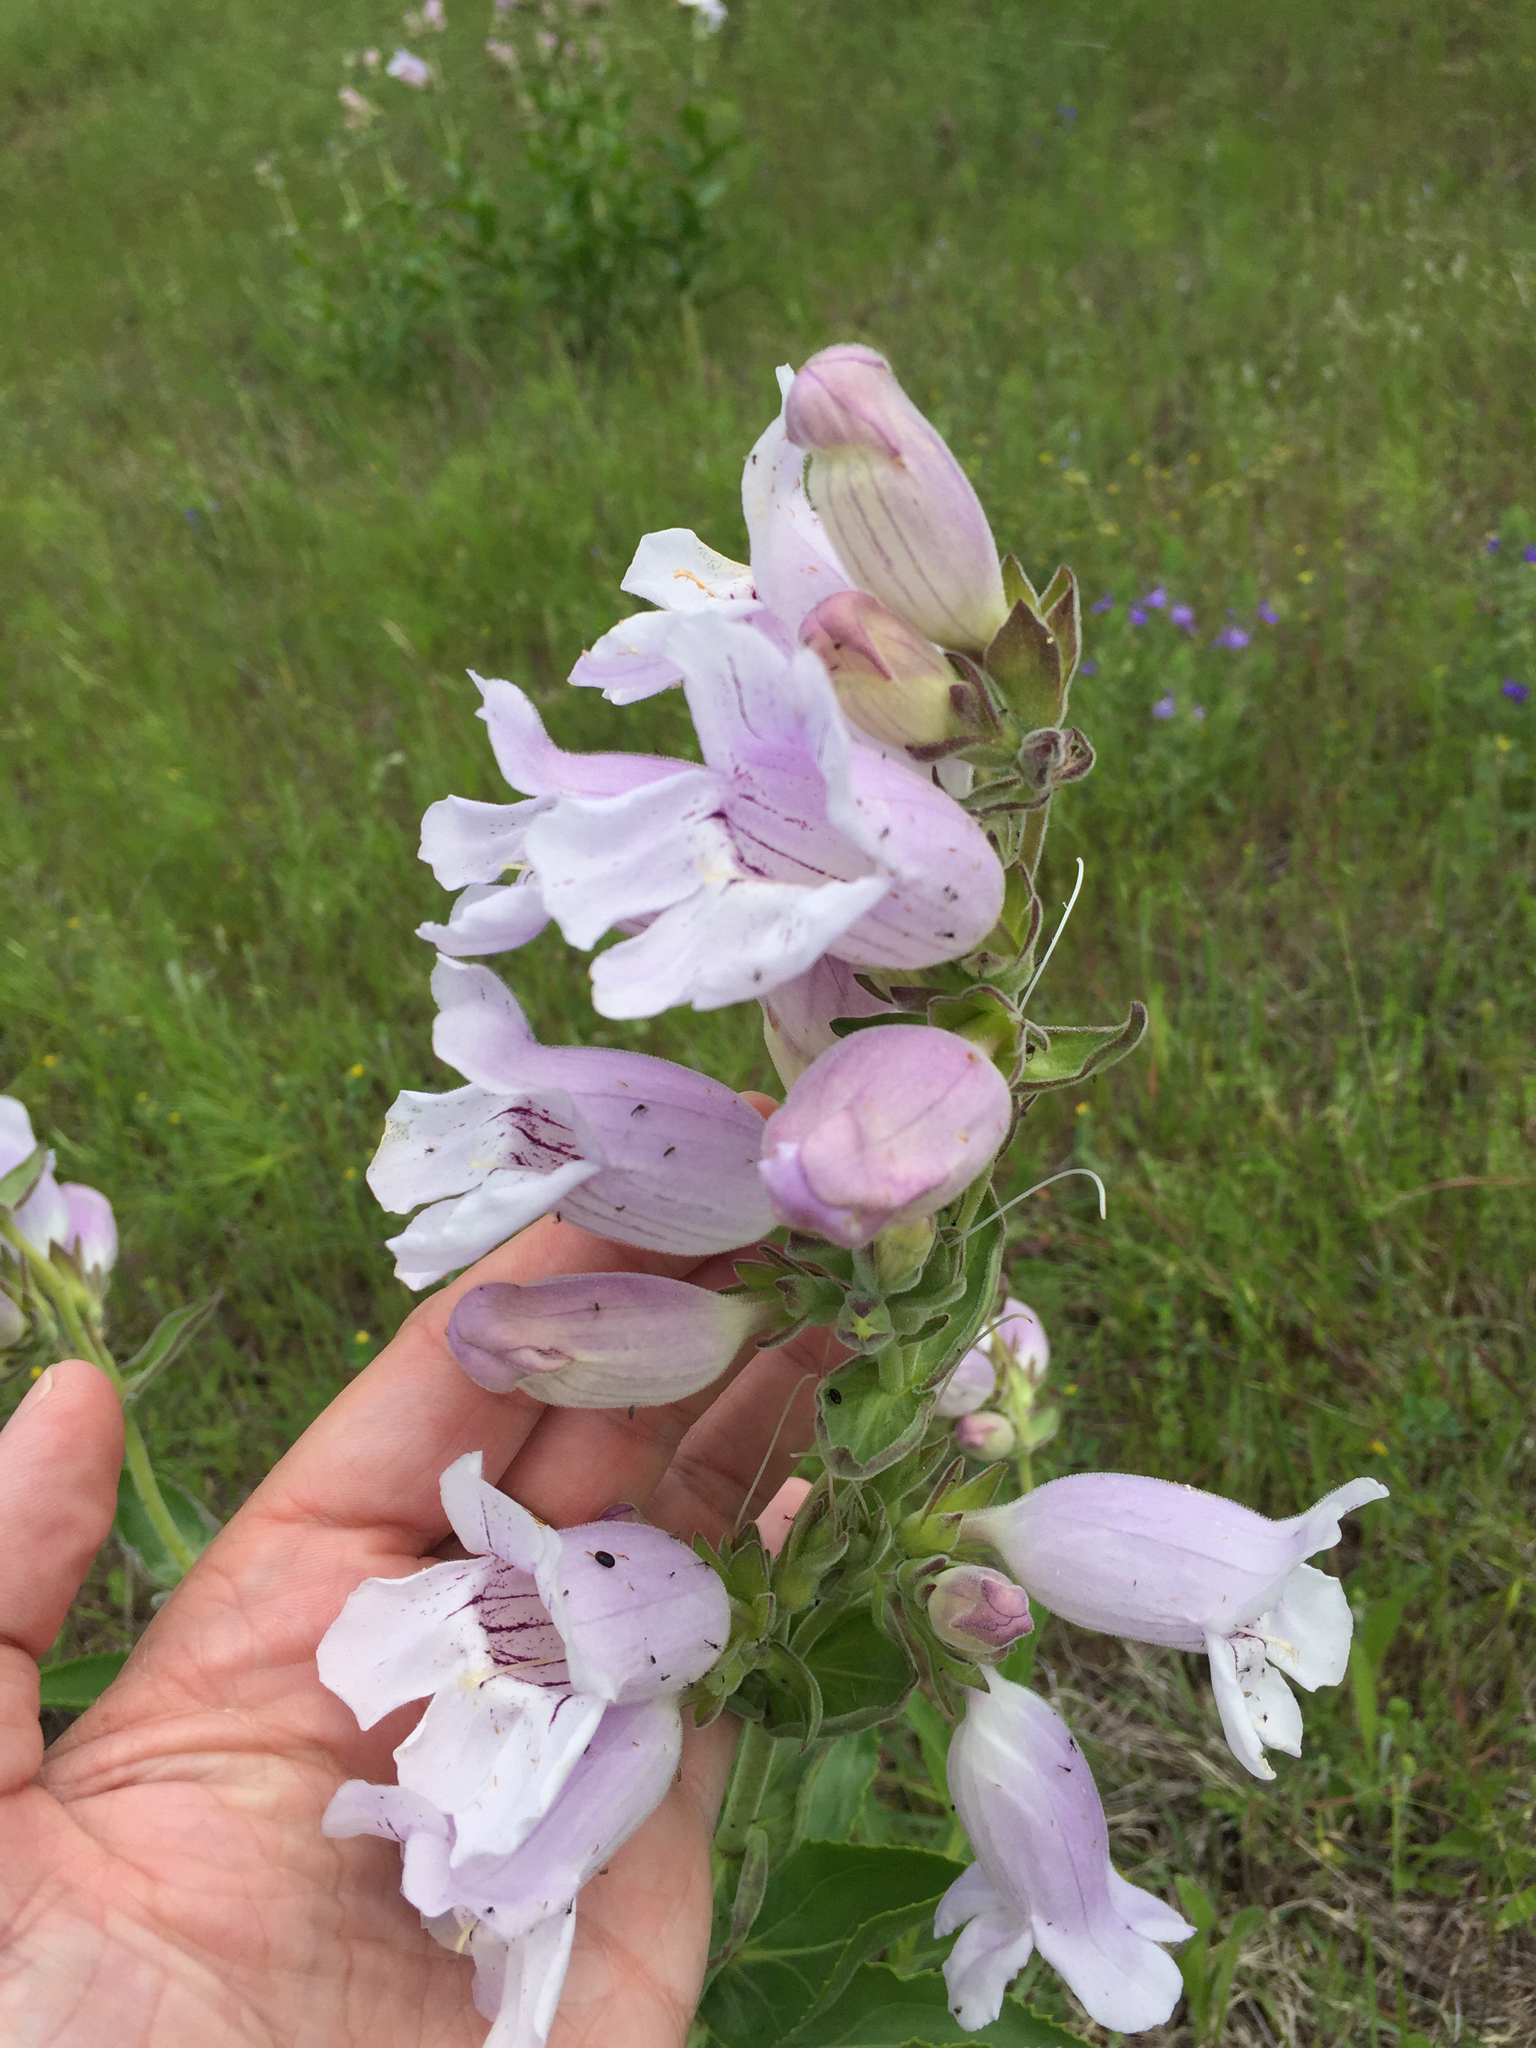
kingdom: Plantae
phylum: Tracheophyta
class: Magnoliopsida
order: Lamiales
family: Plantaginaceae
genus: Penstemon
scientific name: Penstemon cobaea
